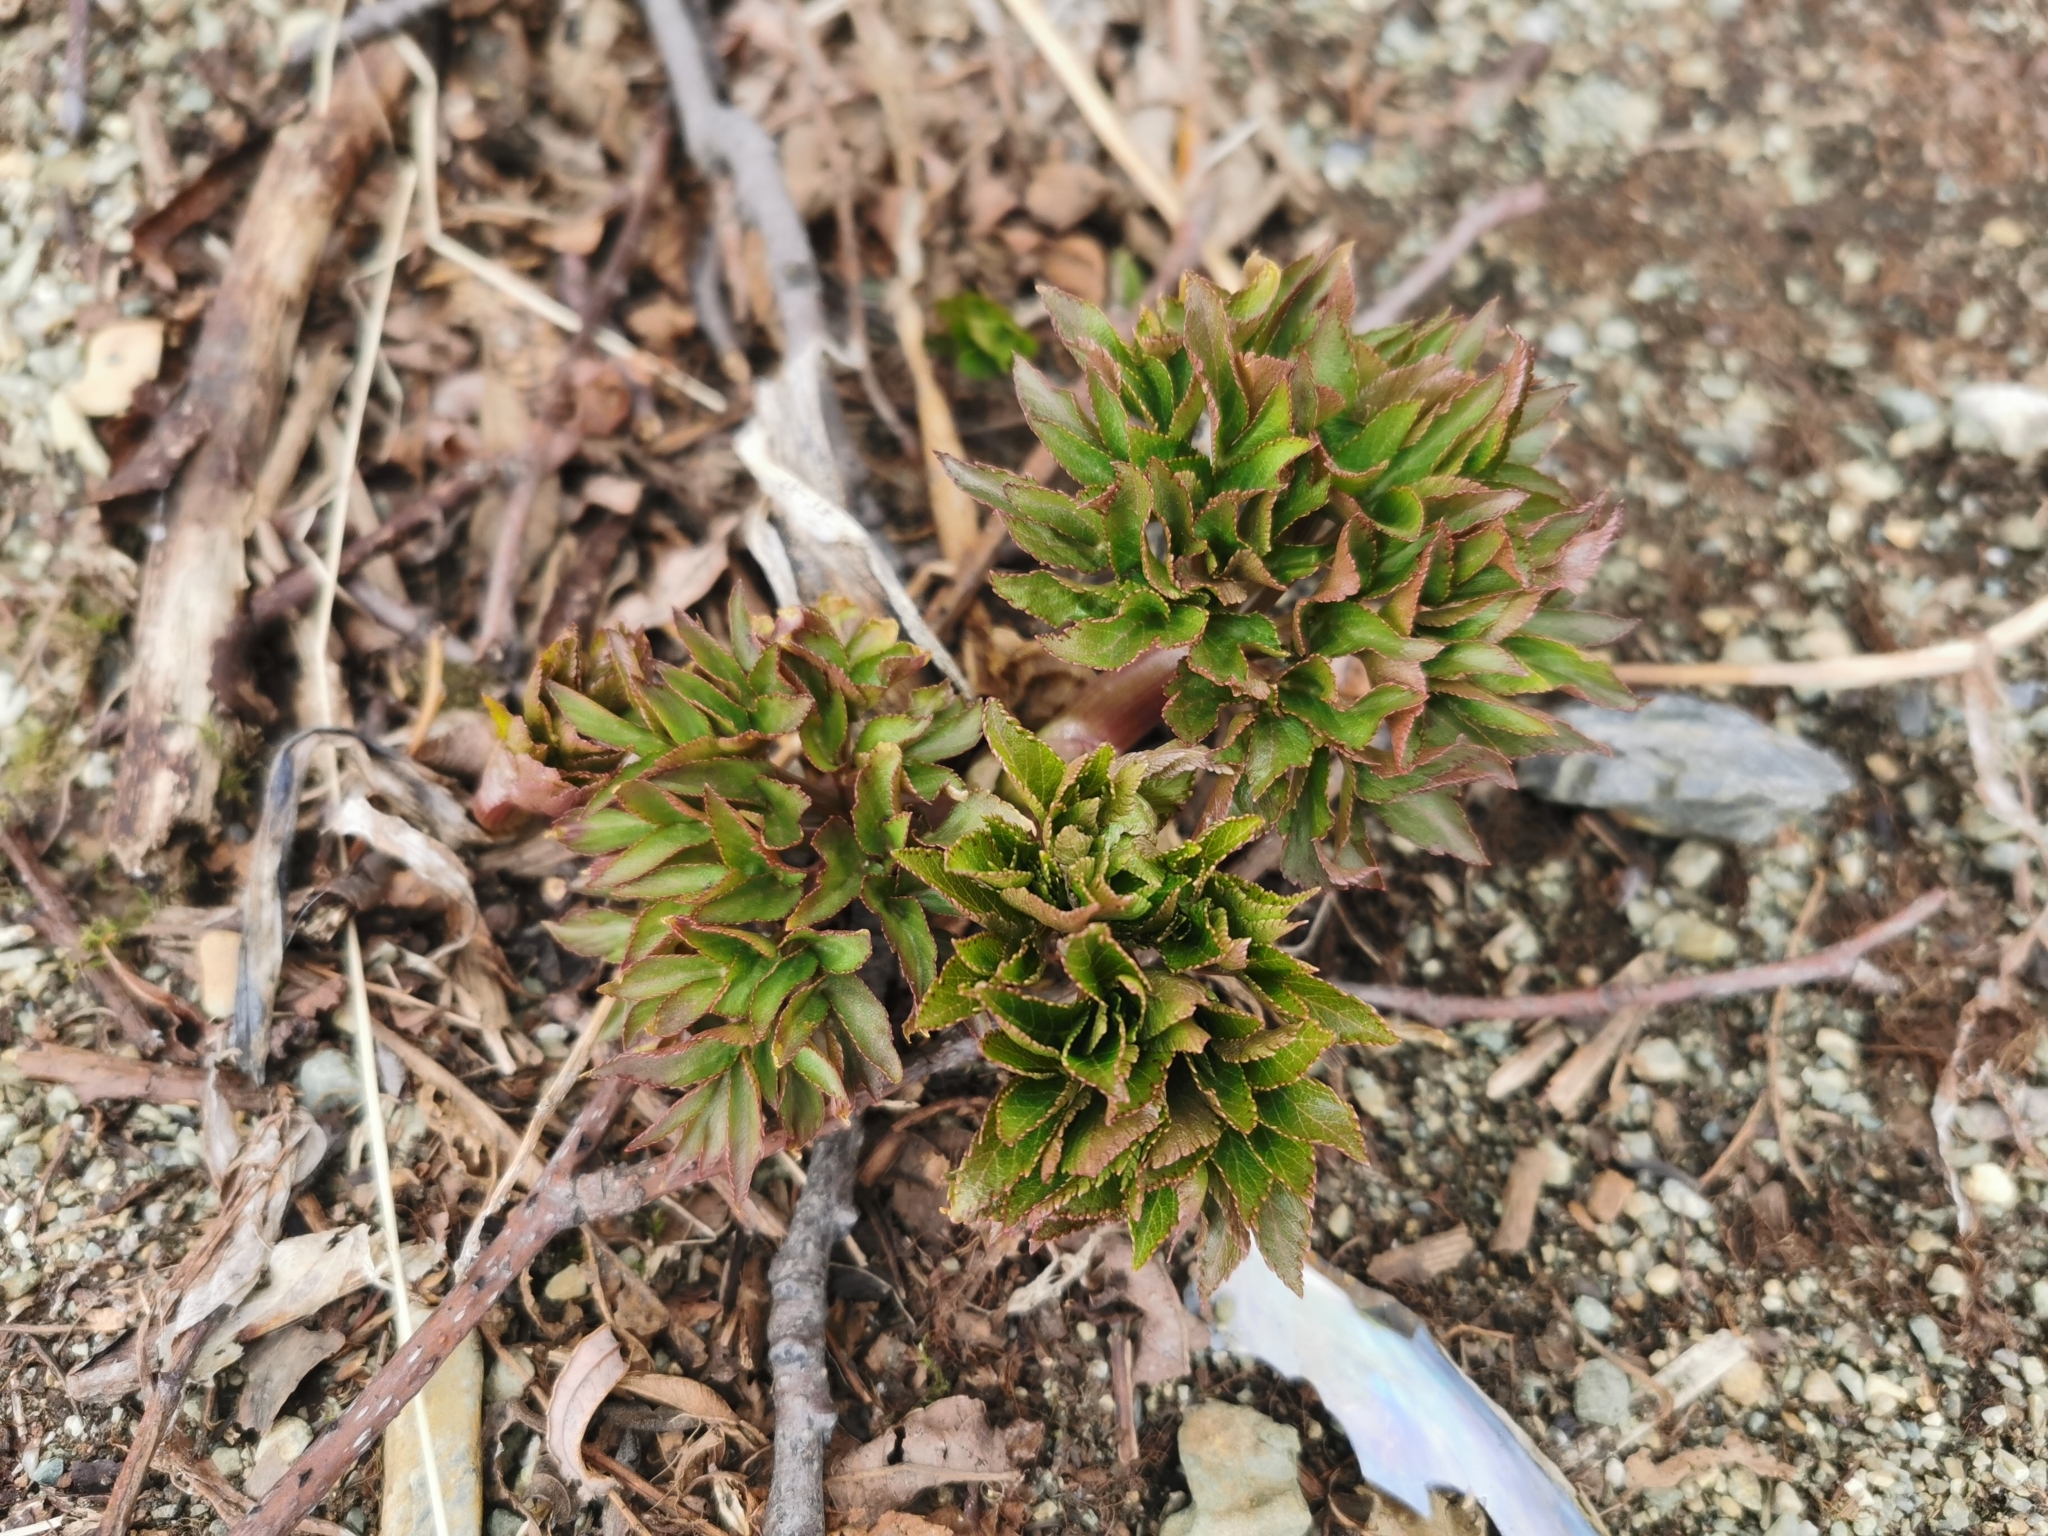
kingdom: Plantae
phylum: Tracheophyta
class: Magnoliopsida
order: Apiales
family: Apiaceae
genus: Angelica
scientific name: Angelica gmelinii
